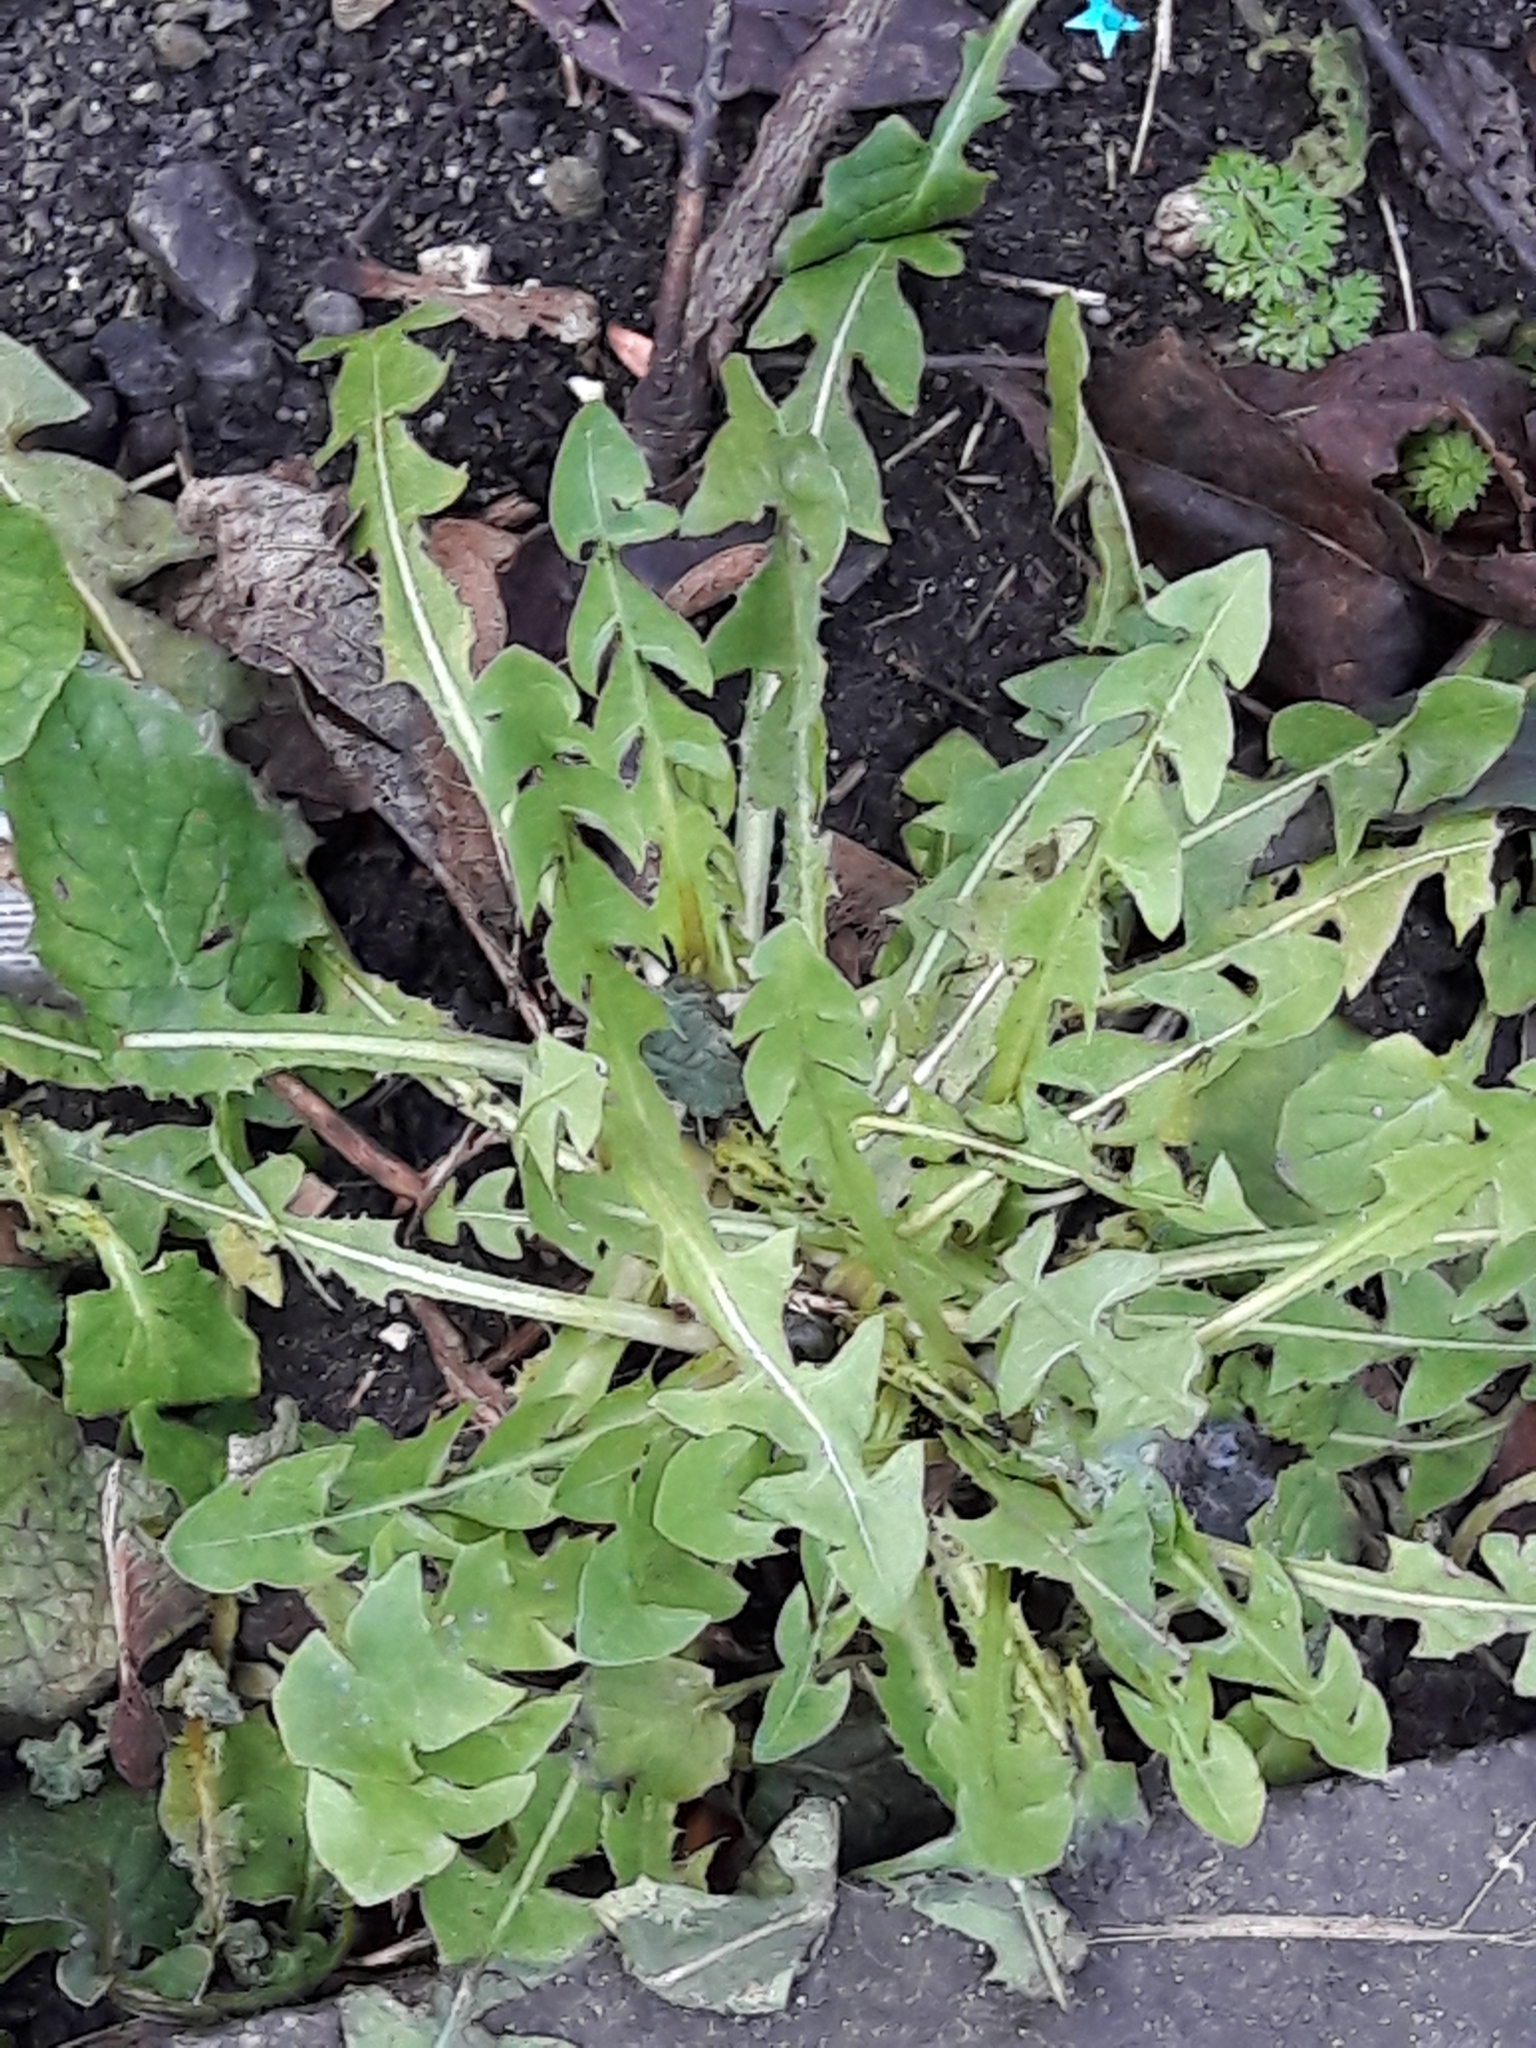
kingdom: Plantae
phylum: Tracheophyta
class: Magnoliopsida
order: Asterales
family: Asteraceae
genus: Taraxacum
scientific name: Taraxacum officinale
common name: Common dandelion
